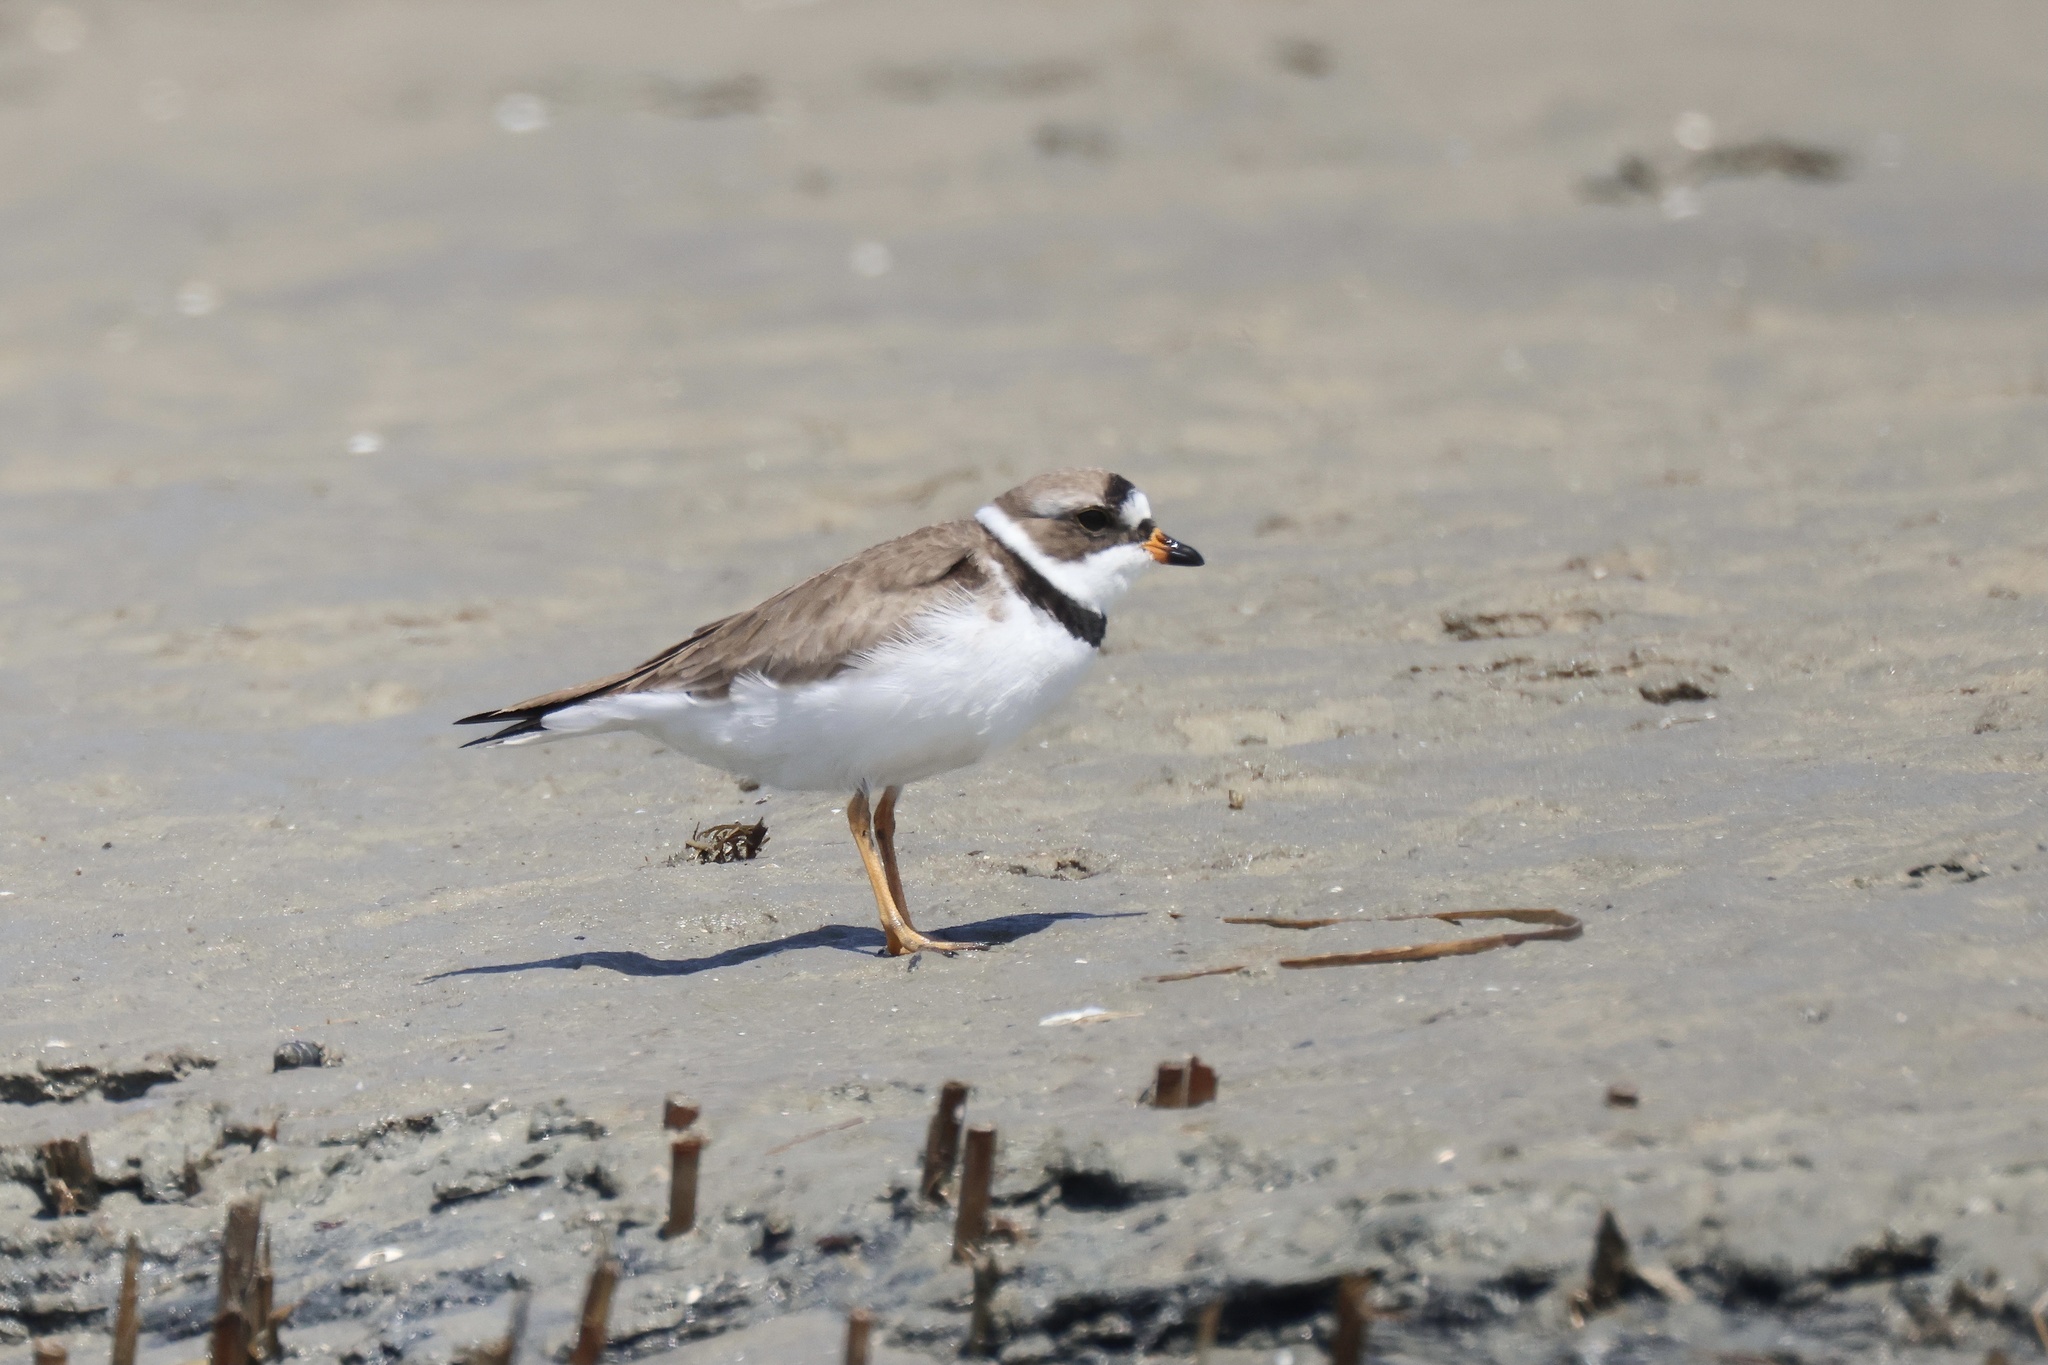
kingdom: Animalia
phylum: Chordata
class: Aves
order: Charadriiformes
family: Charadriidae
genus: Charadrius
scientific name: Charadrius semipalmatus
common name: Semipalmated plover
